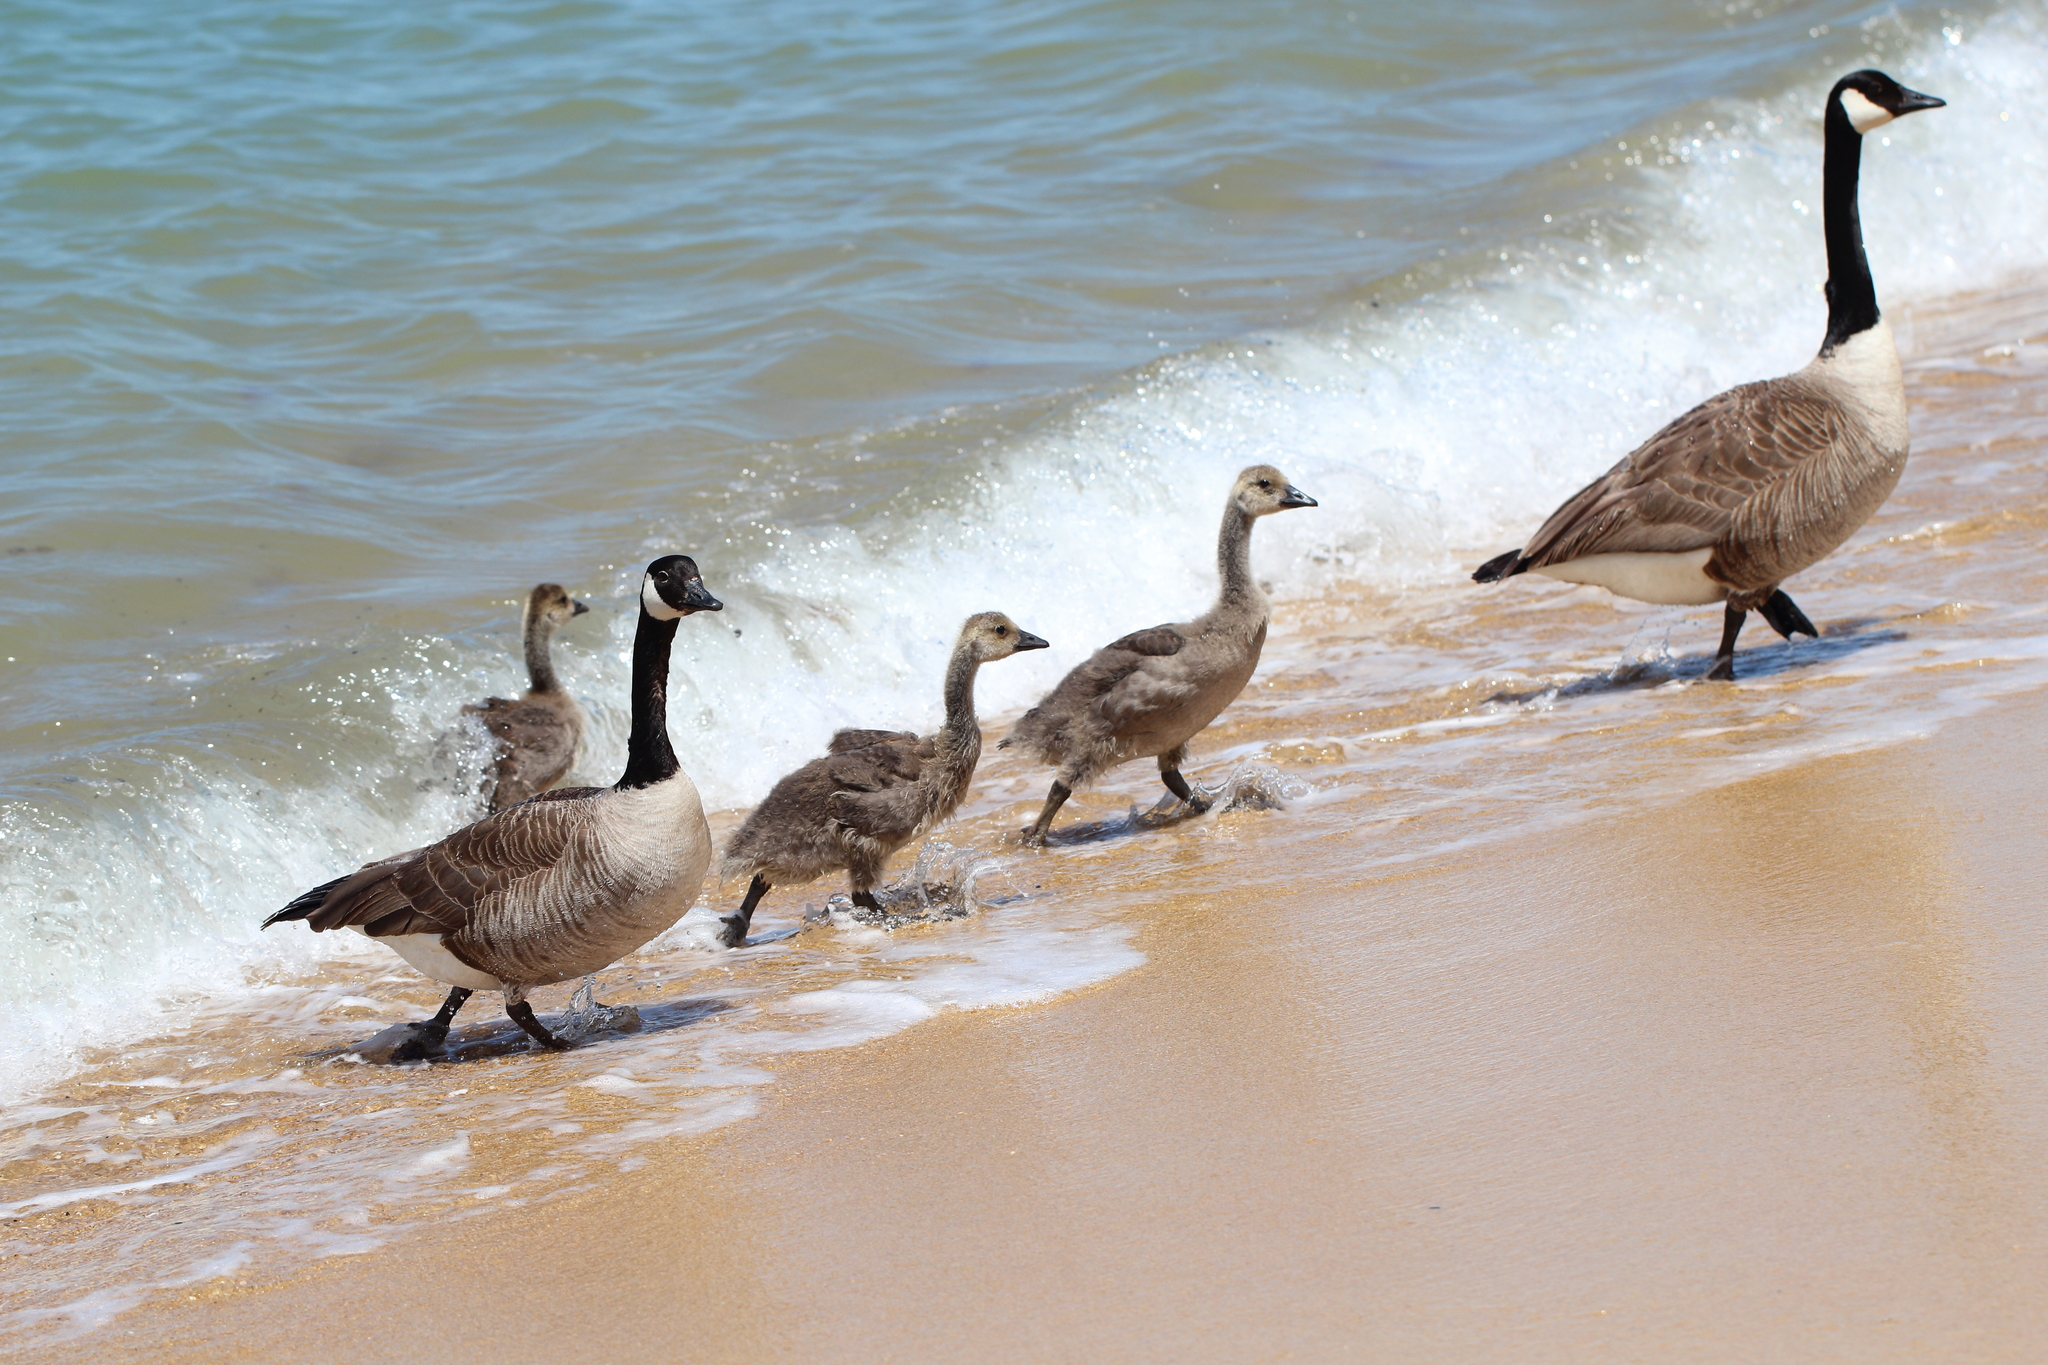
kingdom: Animalia
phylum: Chordata
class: Aves
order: Anseriformes
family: Anatidae
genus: Branta
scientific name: Branta canadensis
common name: Canada goose
